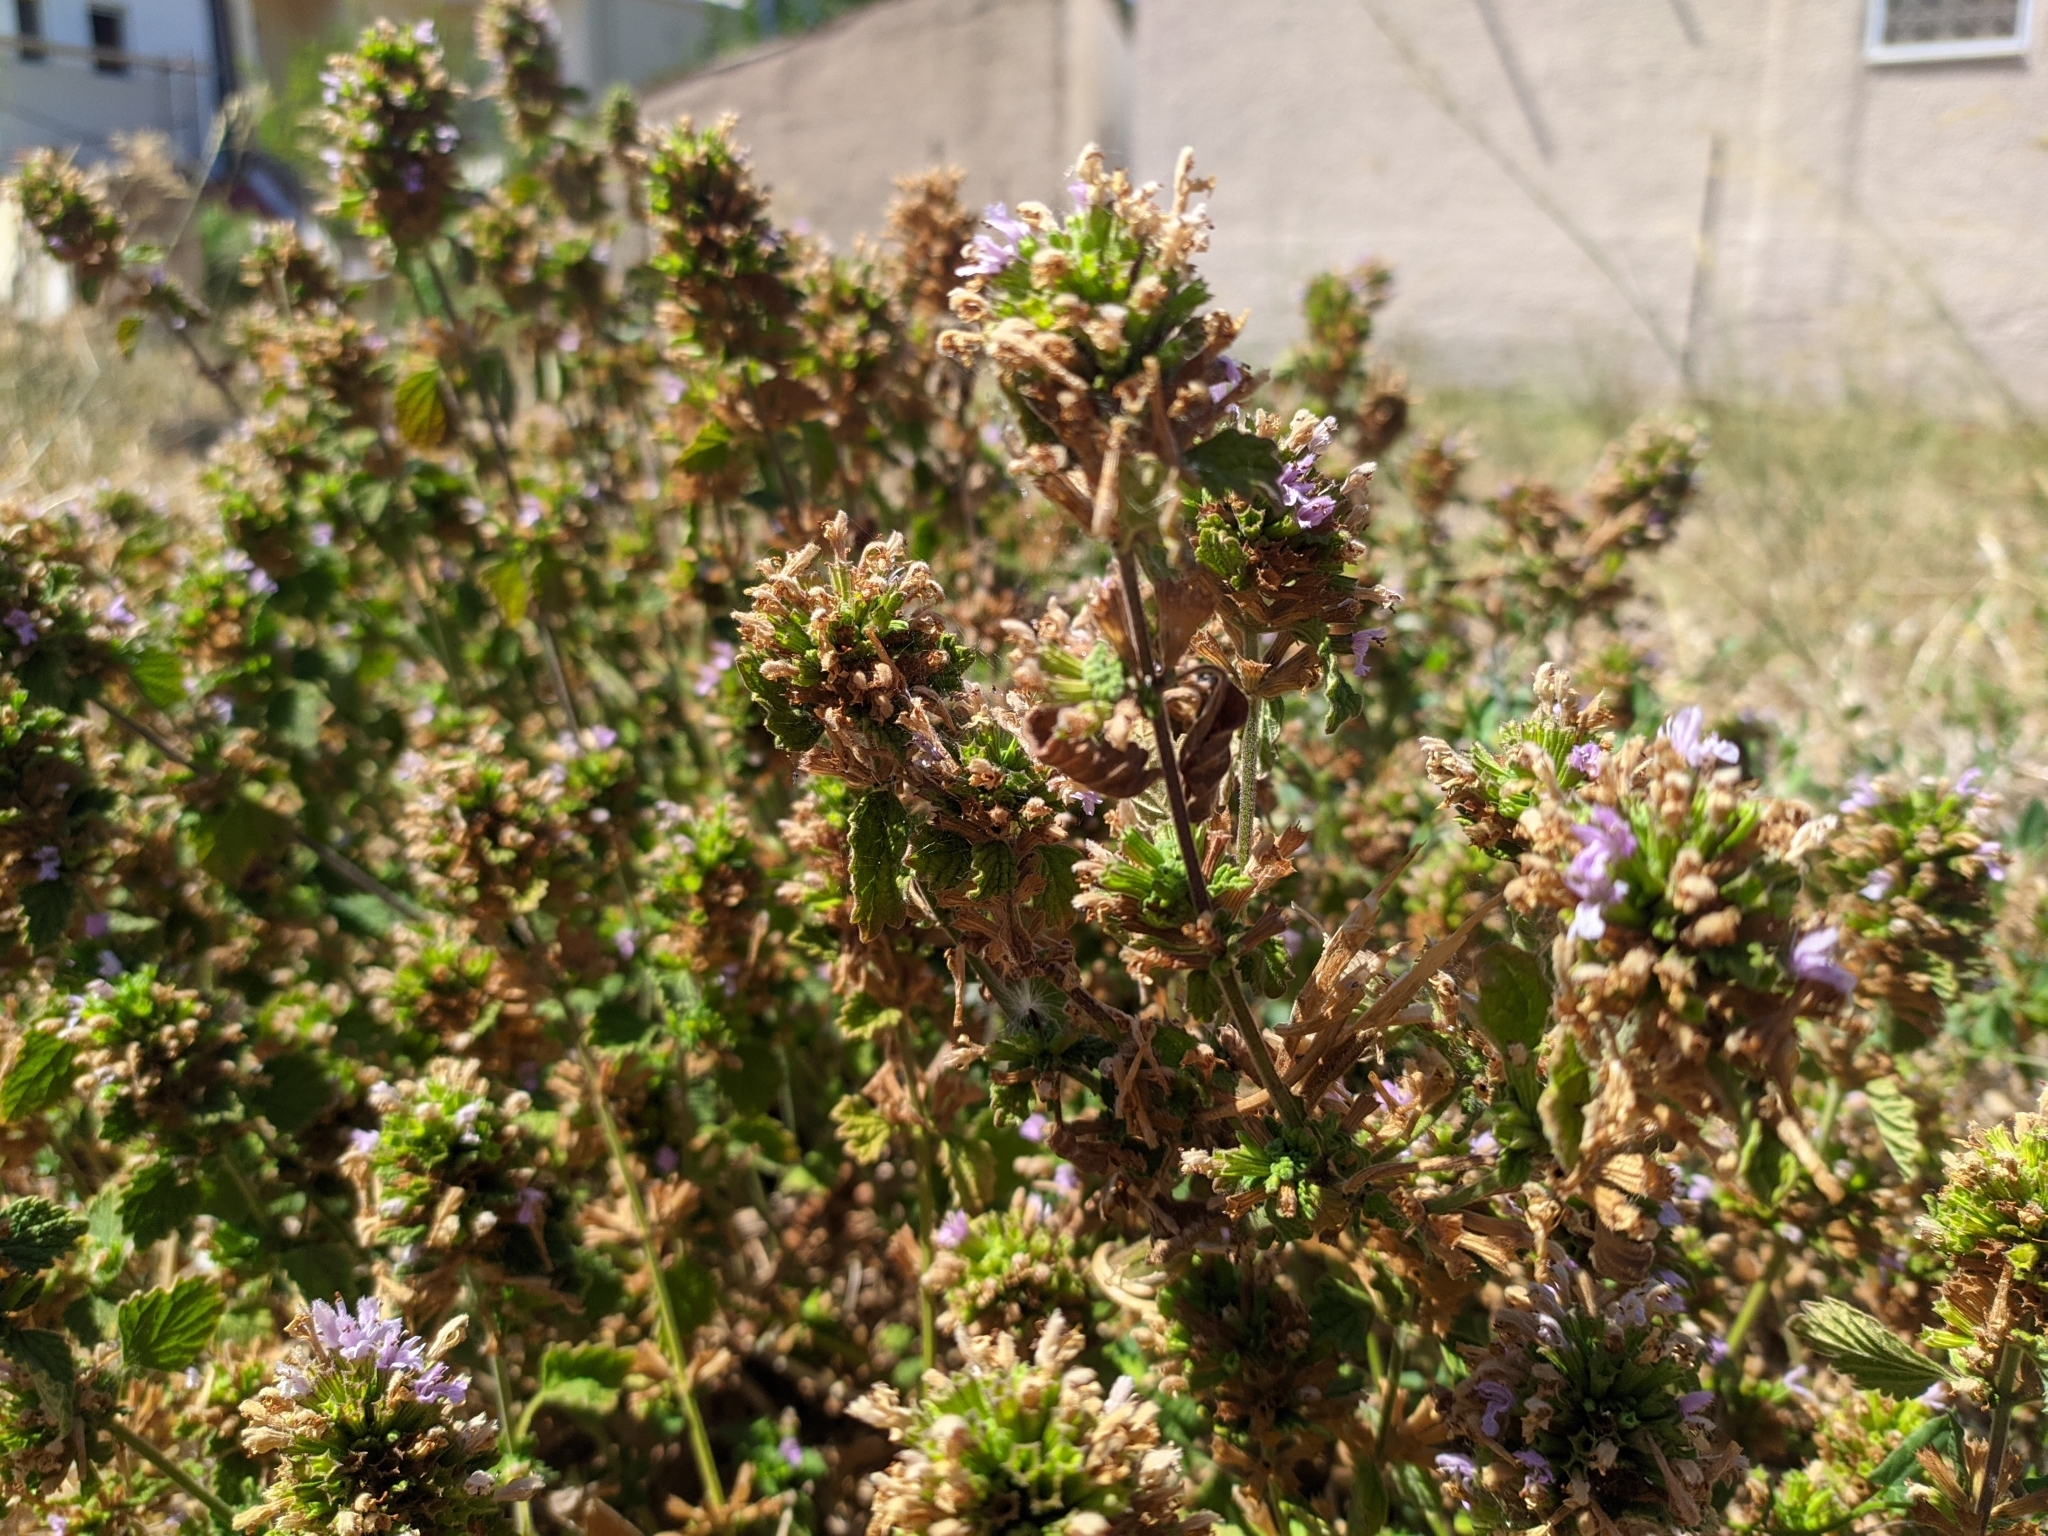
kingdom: Plantae
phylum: Tracheophyta
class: Magnoliopsida
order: Lamiales
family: Lamiaceae
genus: Marrubium
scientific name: Marrubium vulgare
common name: Horehound
